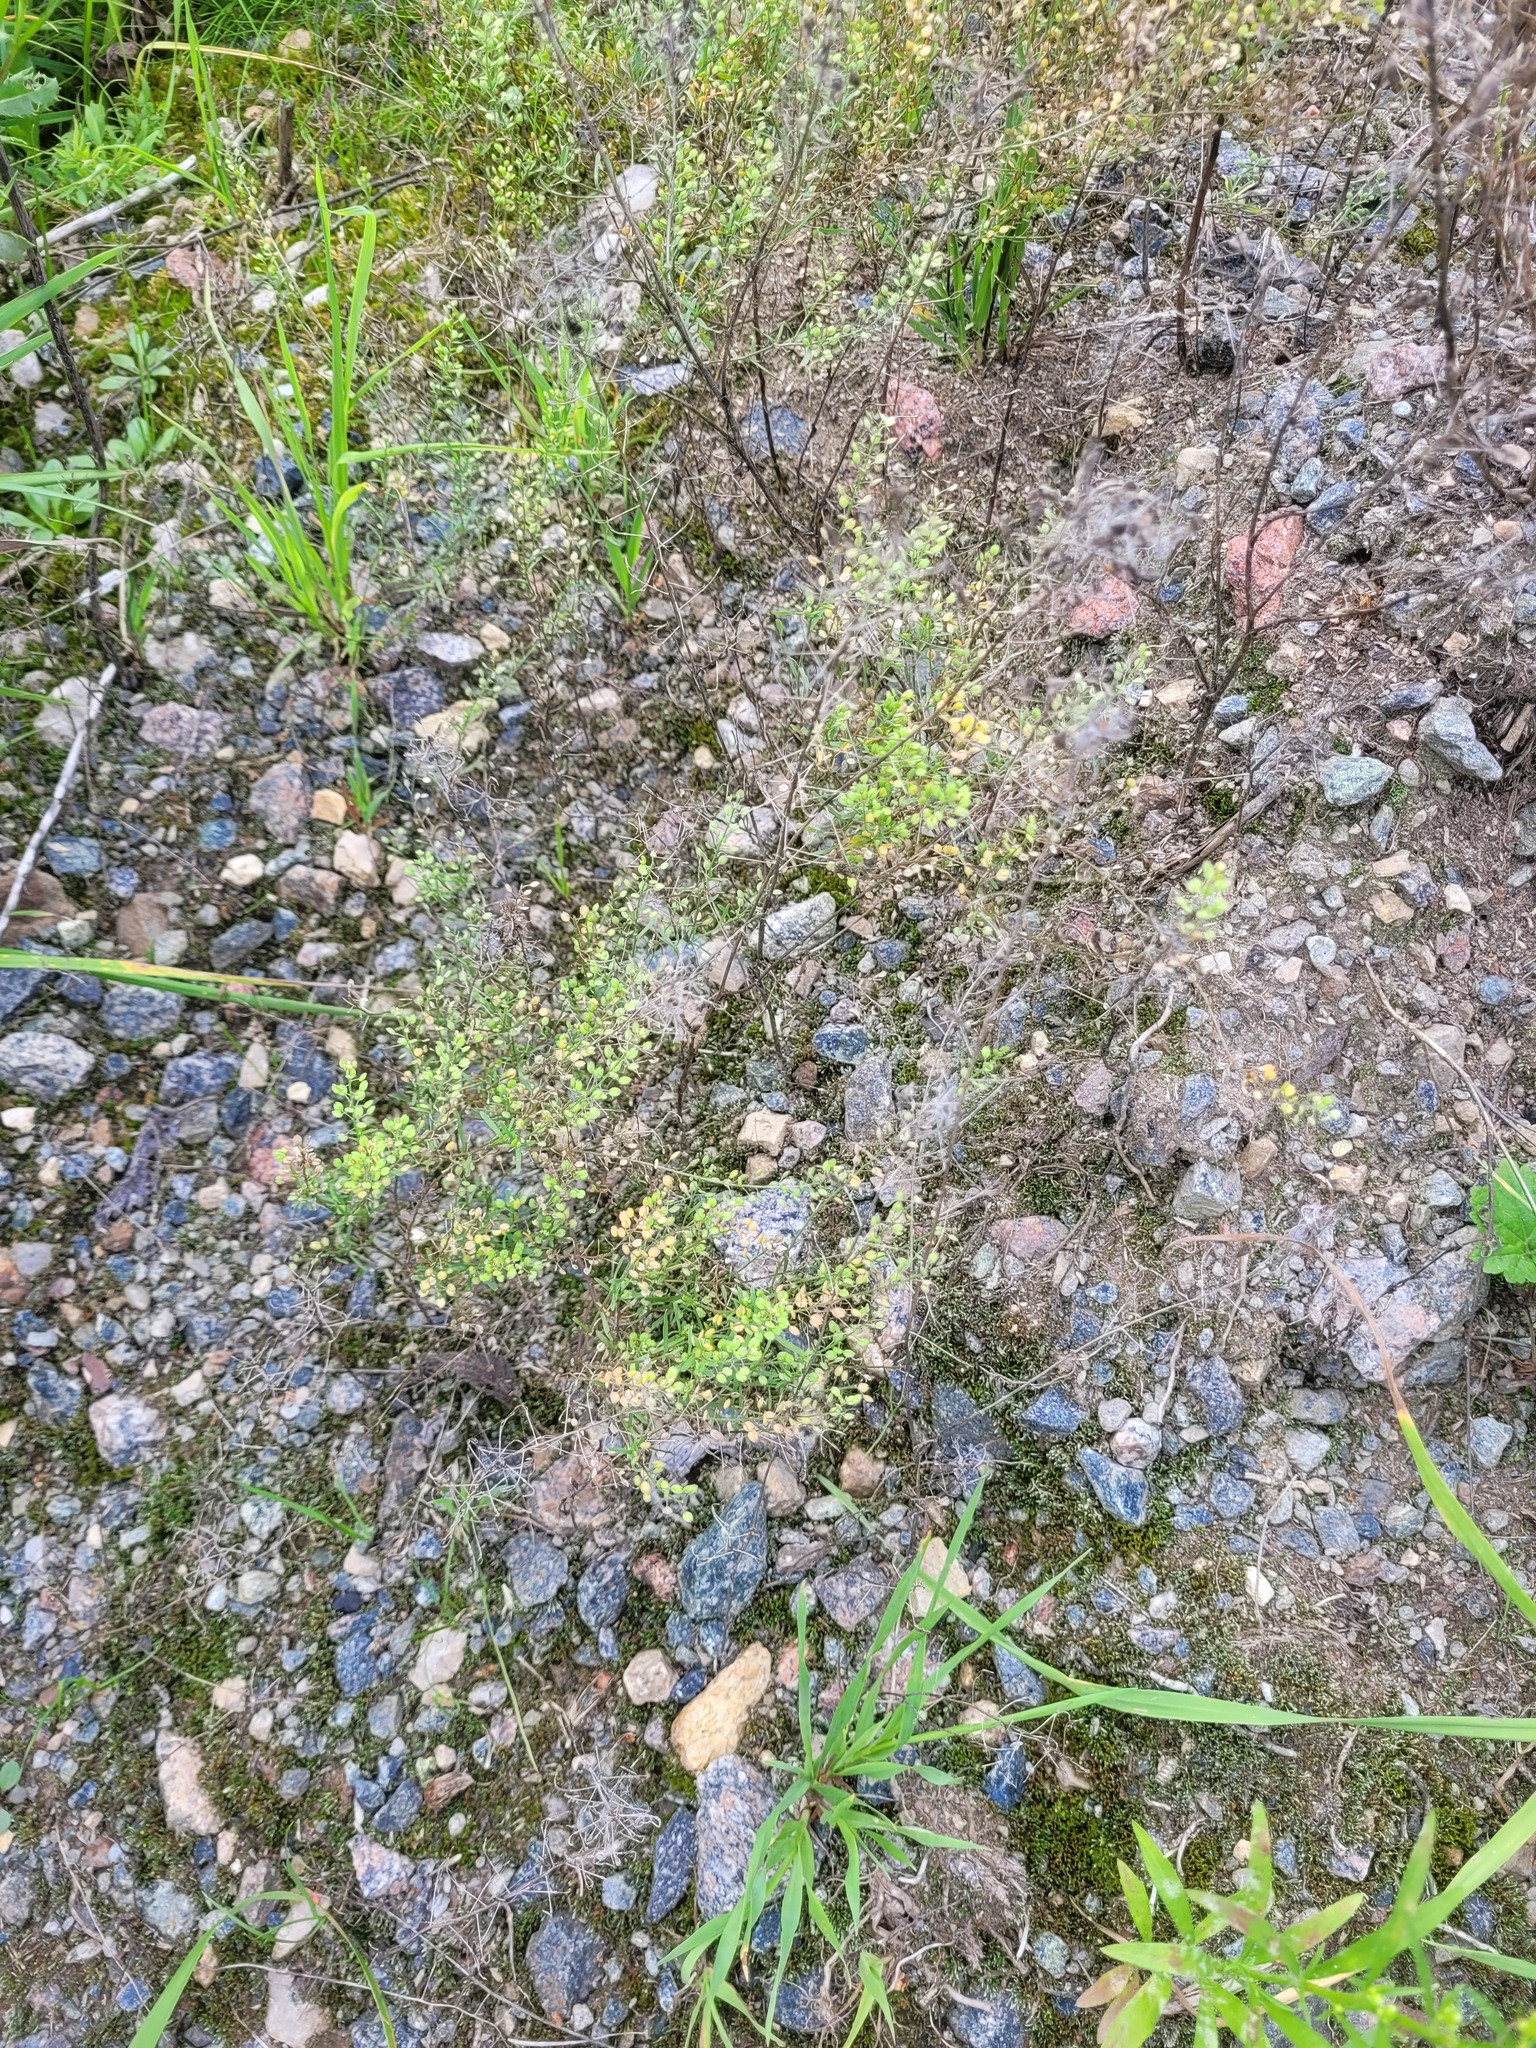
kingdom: Plantae
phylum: Tracheophyta
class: Magnoliopsida
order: Brassicales
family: Brassicaceae
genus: Lepidium
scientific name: Lepidium ruderale
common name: Narrow-leaved pepperwort
